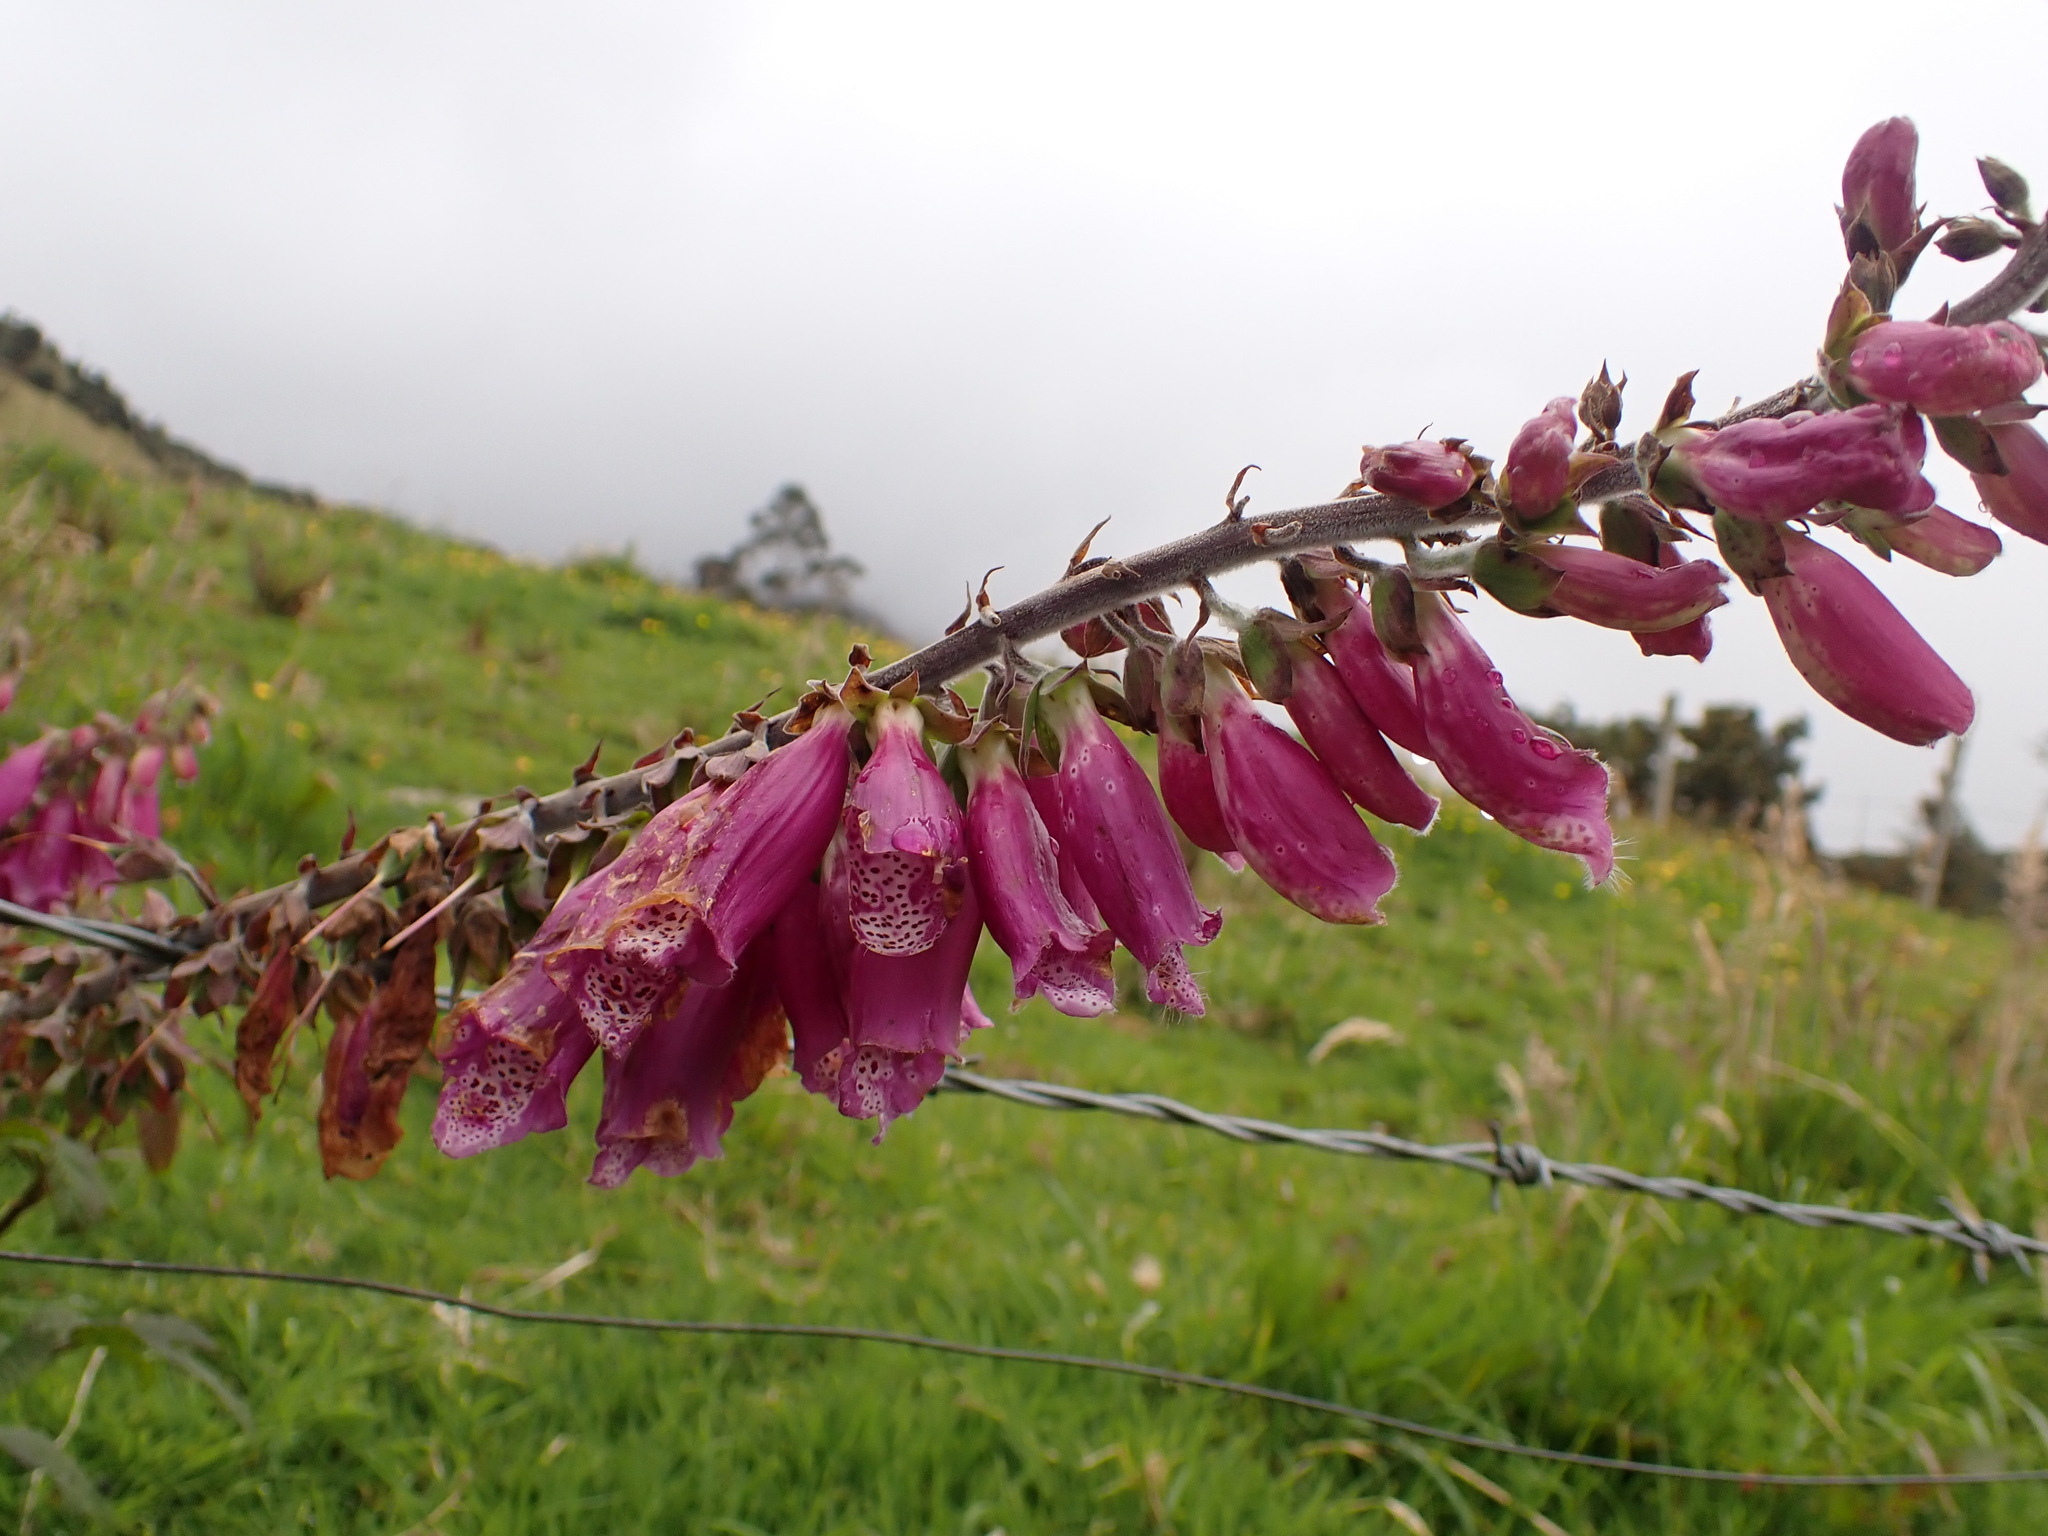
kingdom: Plantae
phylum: Tracheophyta
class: Magnoliopsida
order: Lamiales
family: Plantaginaceae
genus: Digitalis
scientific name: Digitalis purpurea
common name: Foxglove
